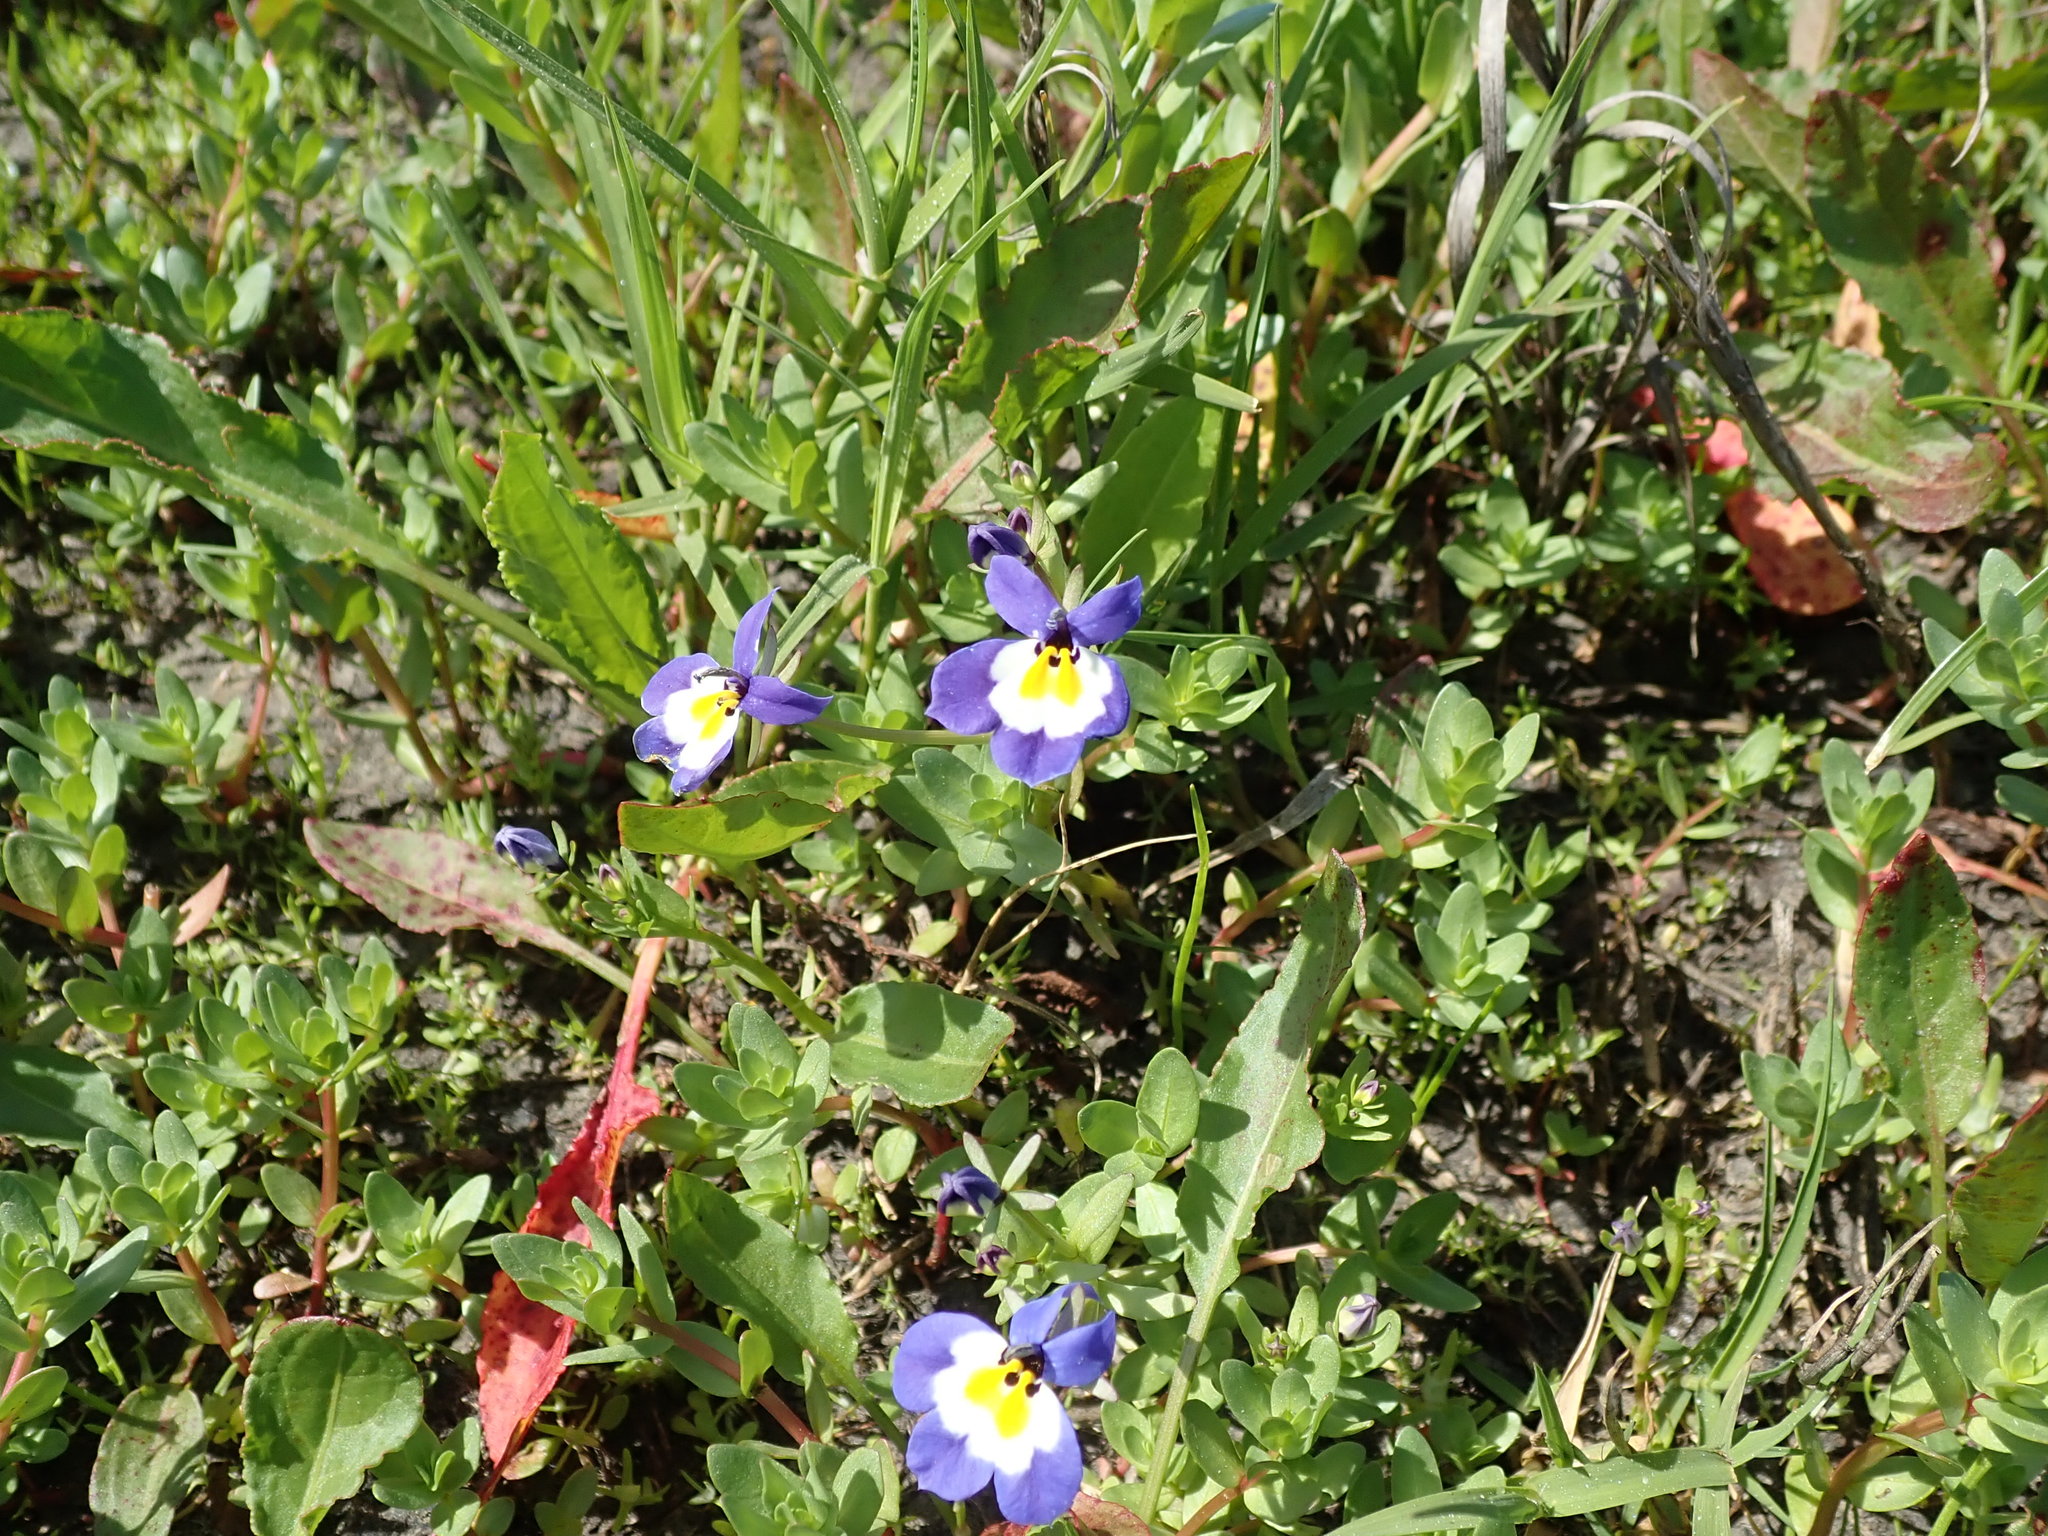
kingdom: Plantae
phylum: Tracheophyta
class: Magnoliopsida
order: Asterales
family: Campanulaceae
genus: Downingia
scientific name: Downingia pulchella
